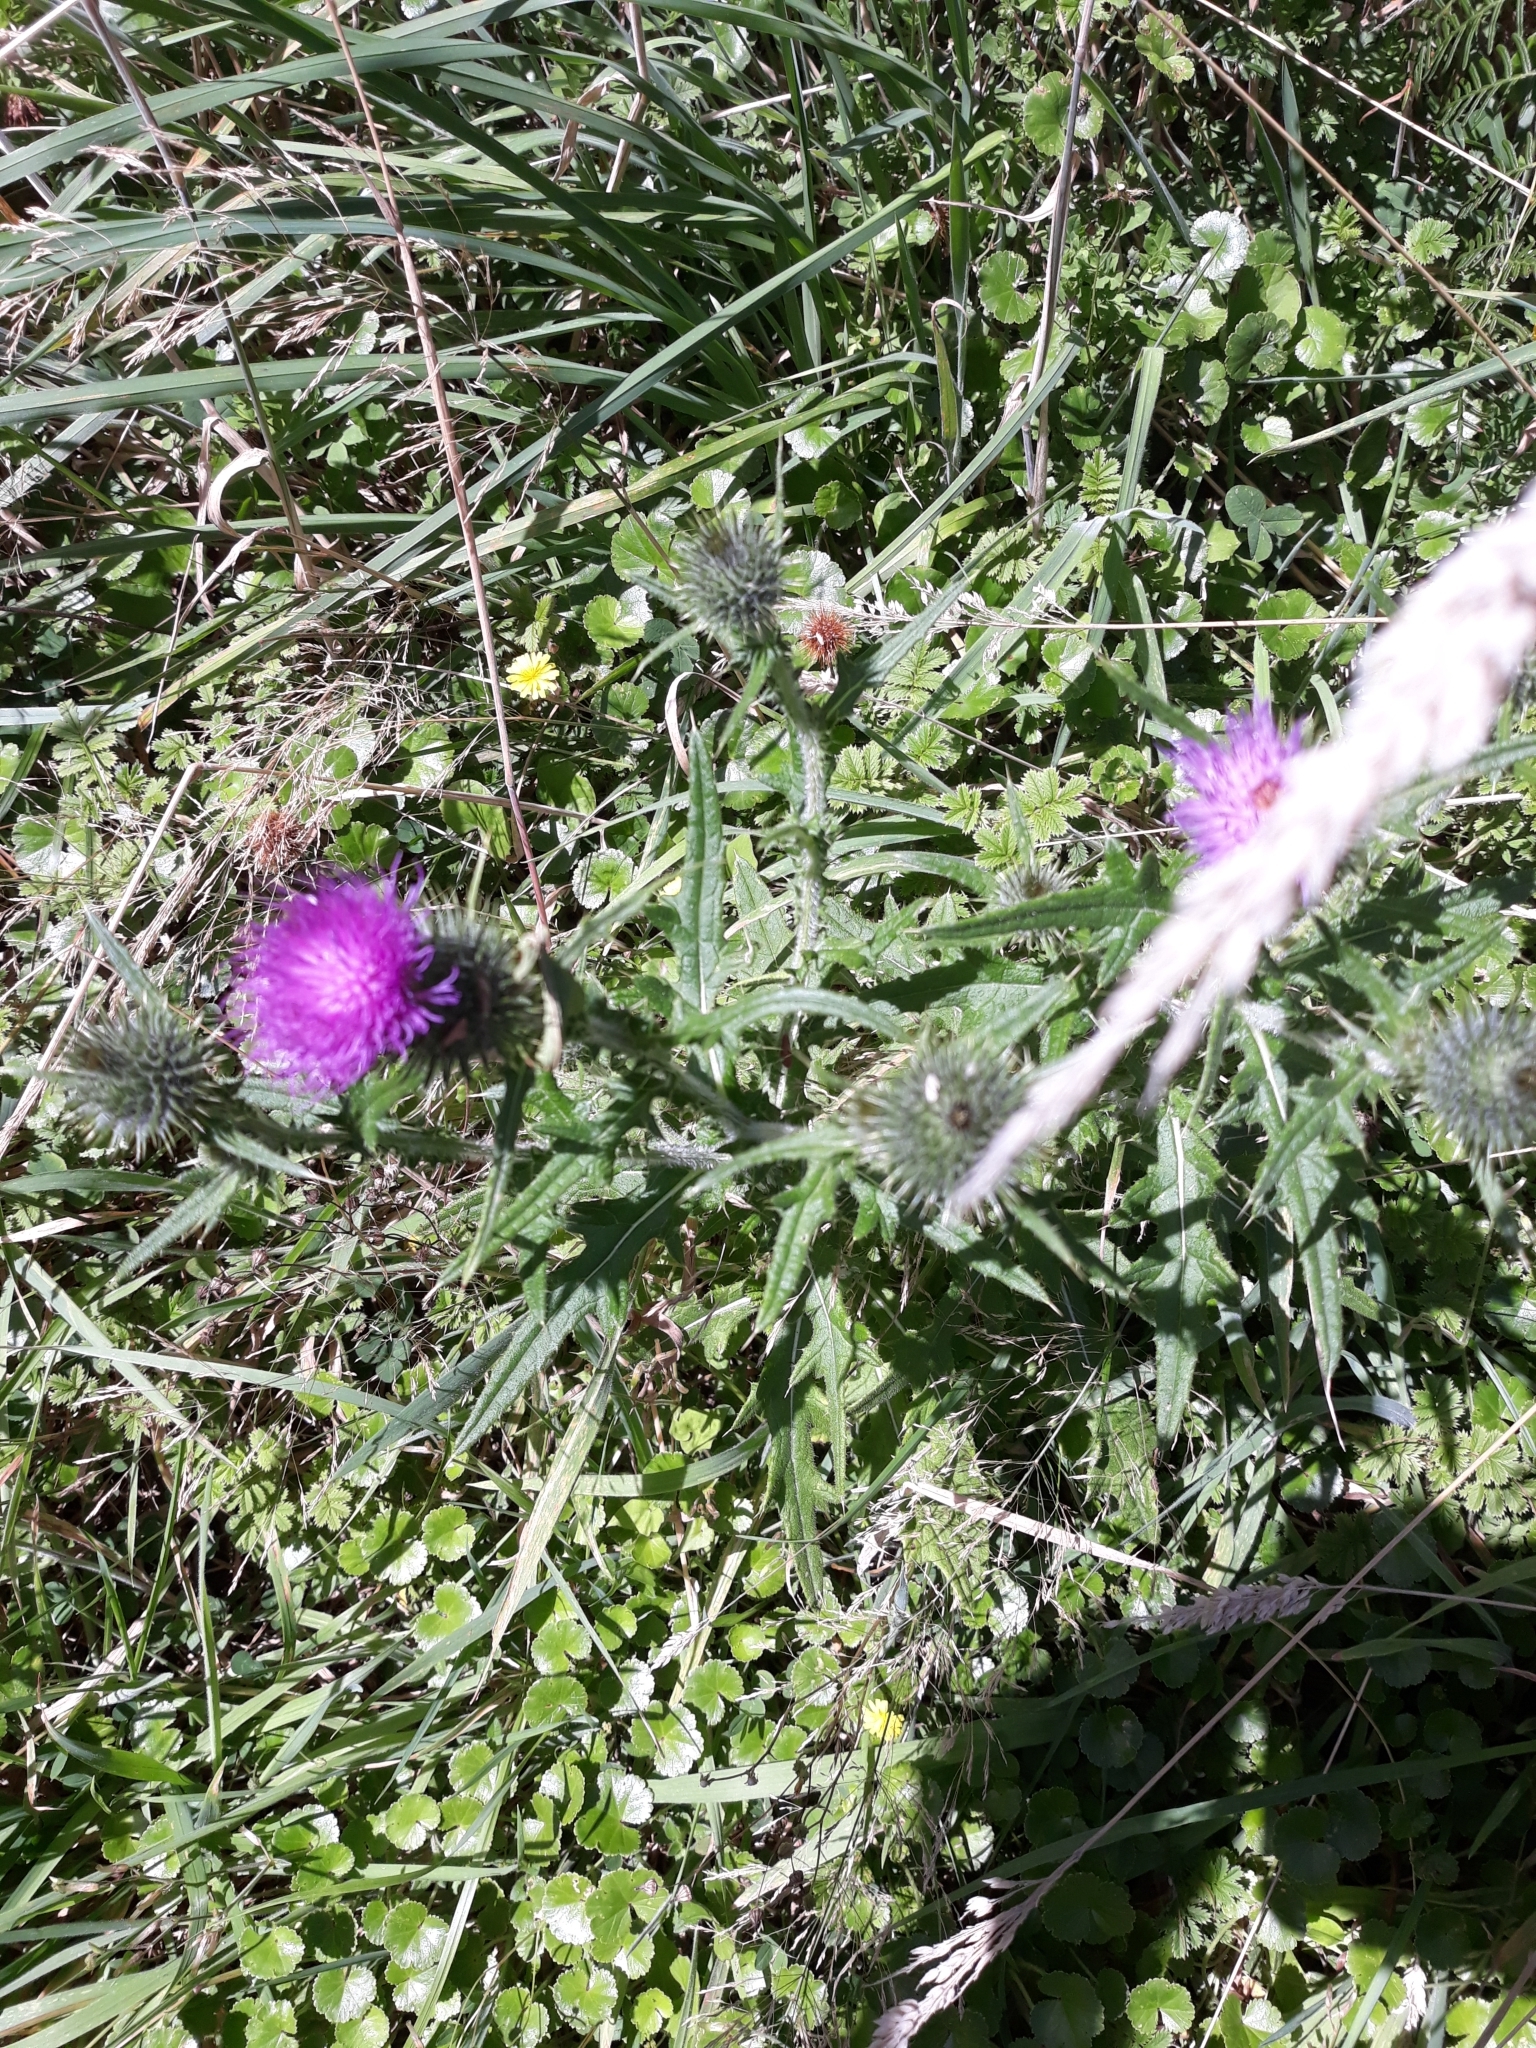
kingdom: Plantae
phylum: Tracheophyta
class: Magnoliopsida
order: Asterales
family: Asteraceae
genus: Cirsium
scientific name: Cirsium vulgare
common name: Bull thistle
